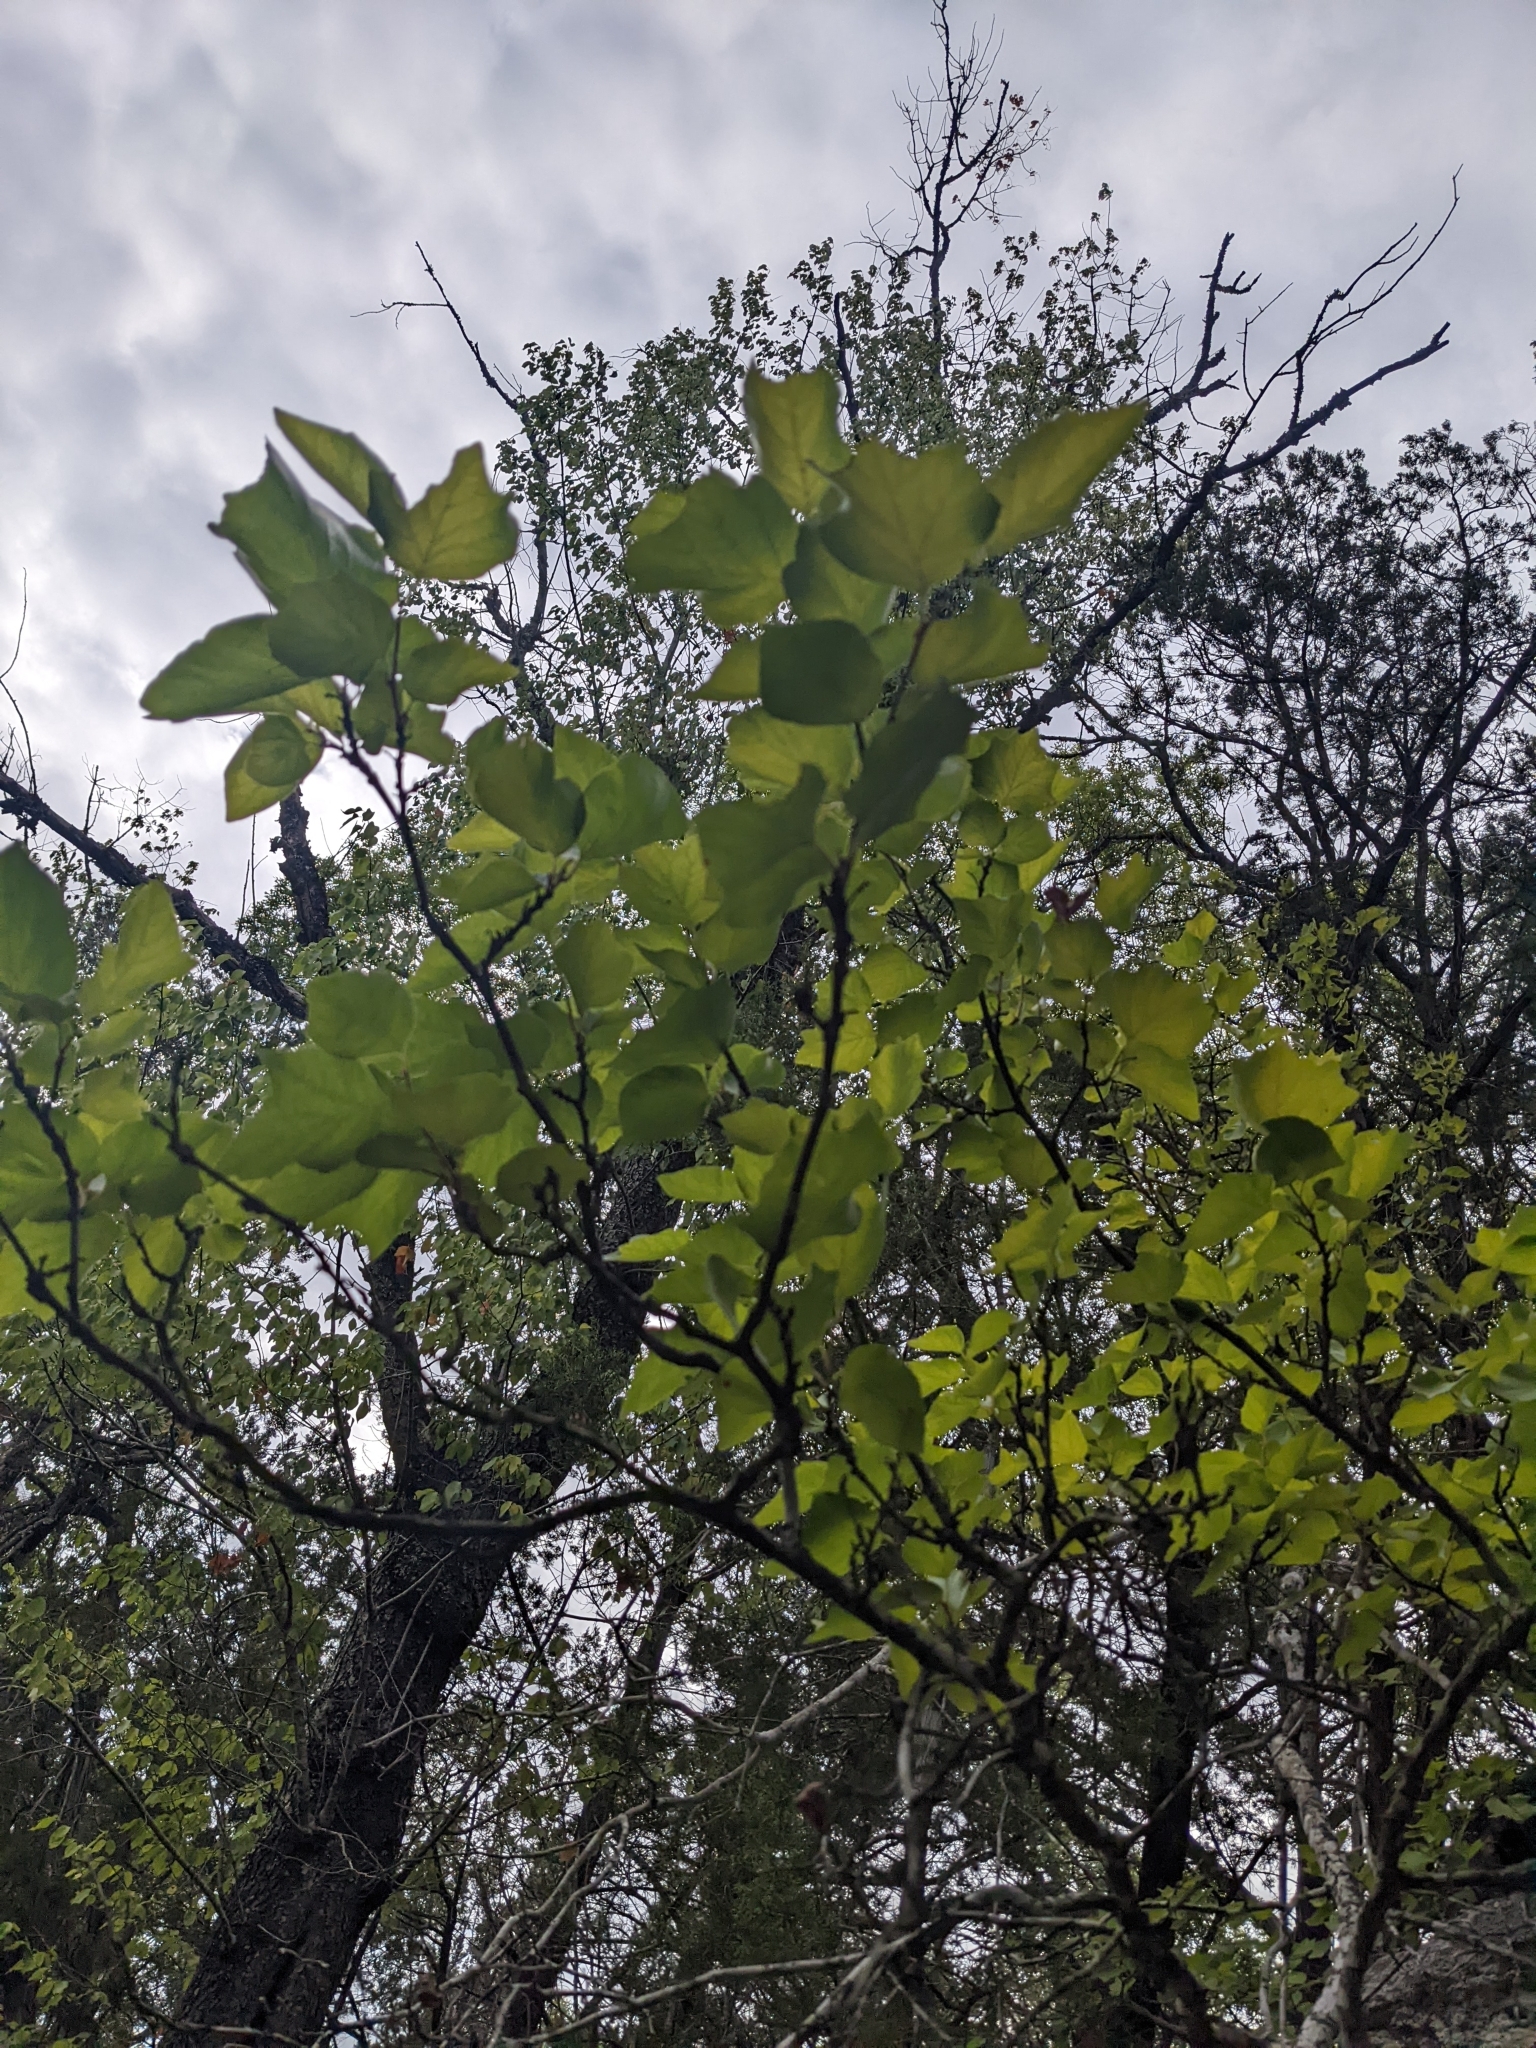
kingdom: Plantae
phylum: Tracheophyta
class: Magnoliopsida
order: Ericales
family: Styracaceae
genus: Styrax
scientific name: Styrax platanifolius
